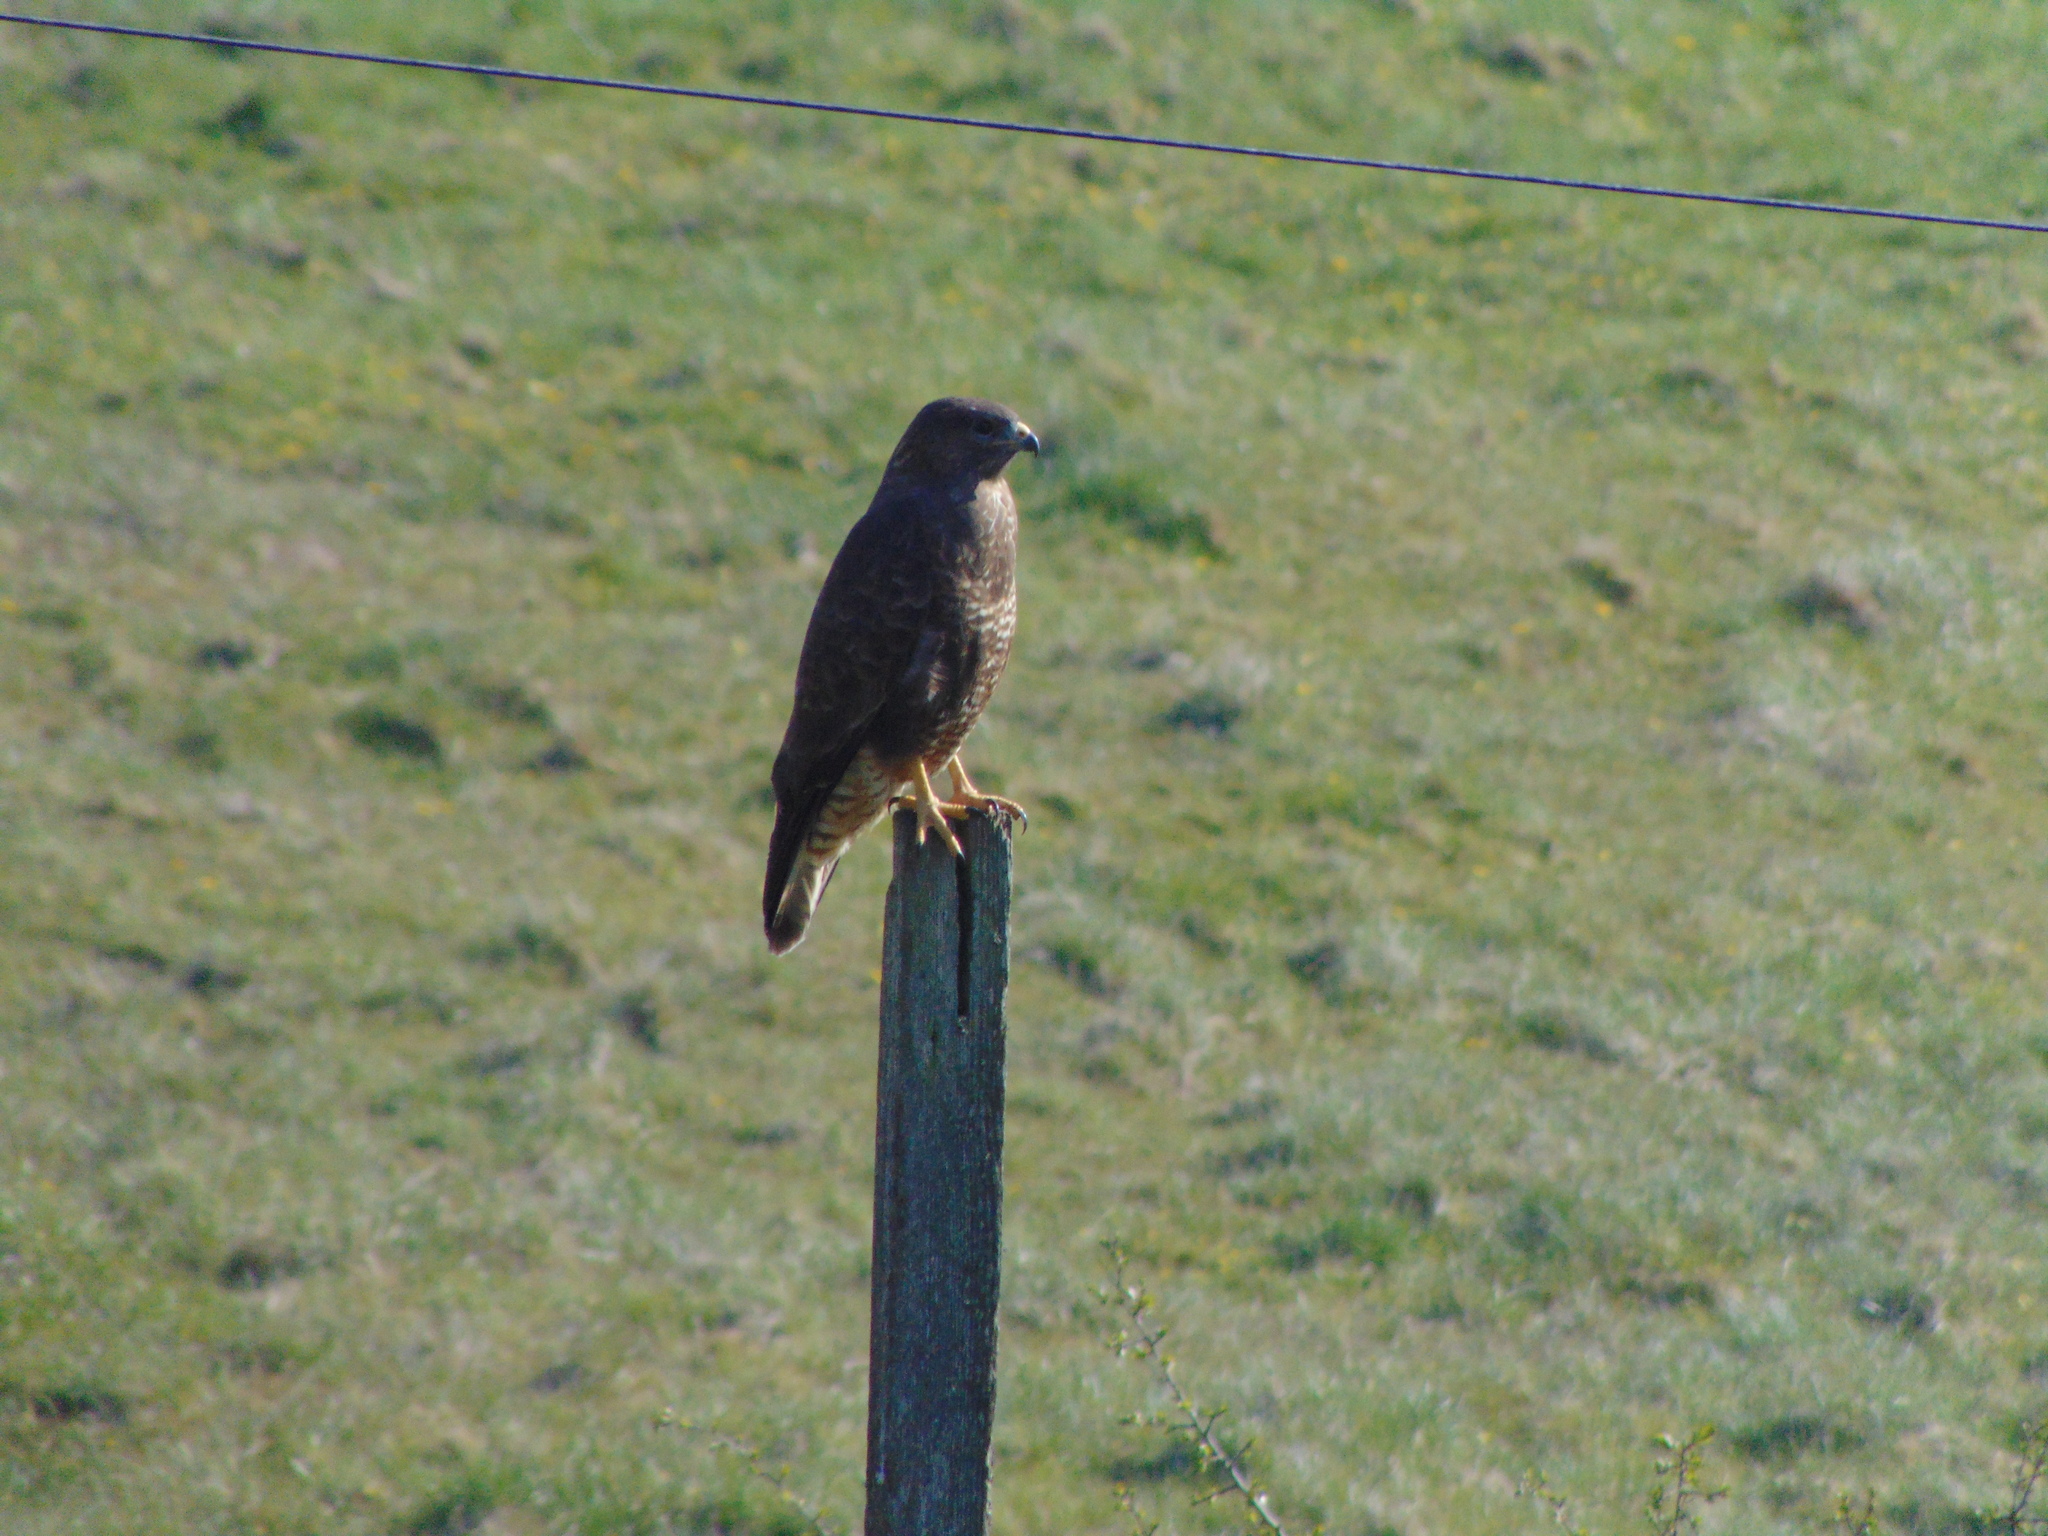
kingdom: Animalia
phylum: Chordata
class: Aves
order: Accipitriformes
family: Accipitridae
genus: Buteo
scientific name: Buteo buteo
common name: Common buzzard
